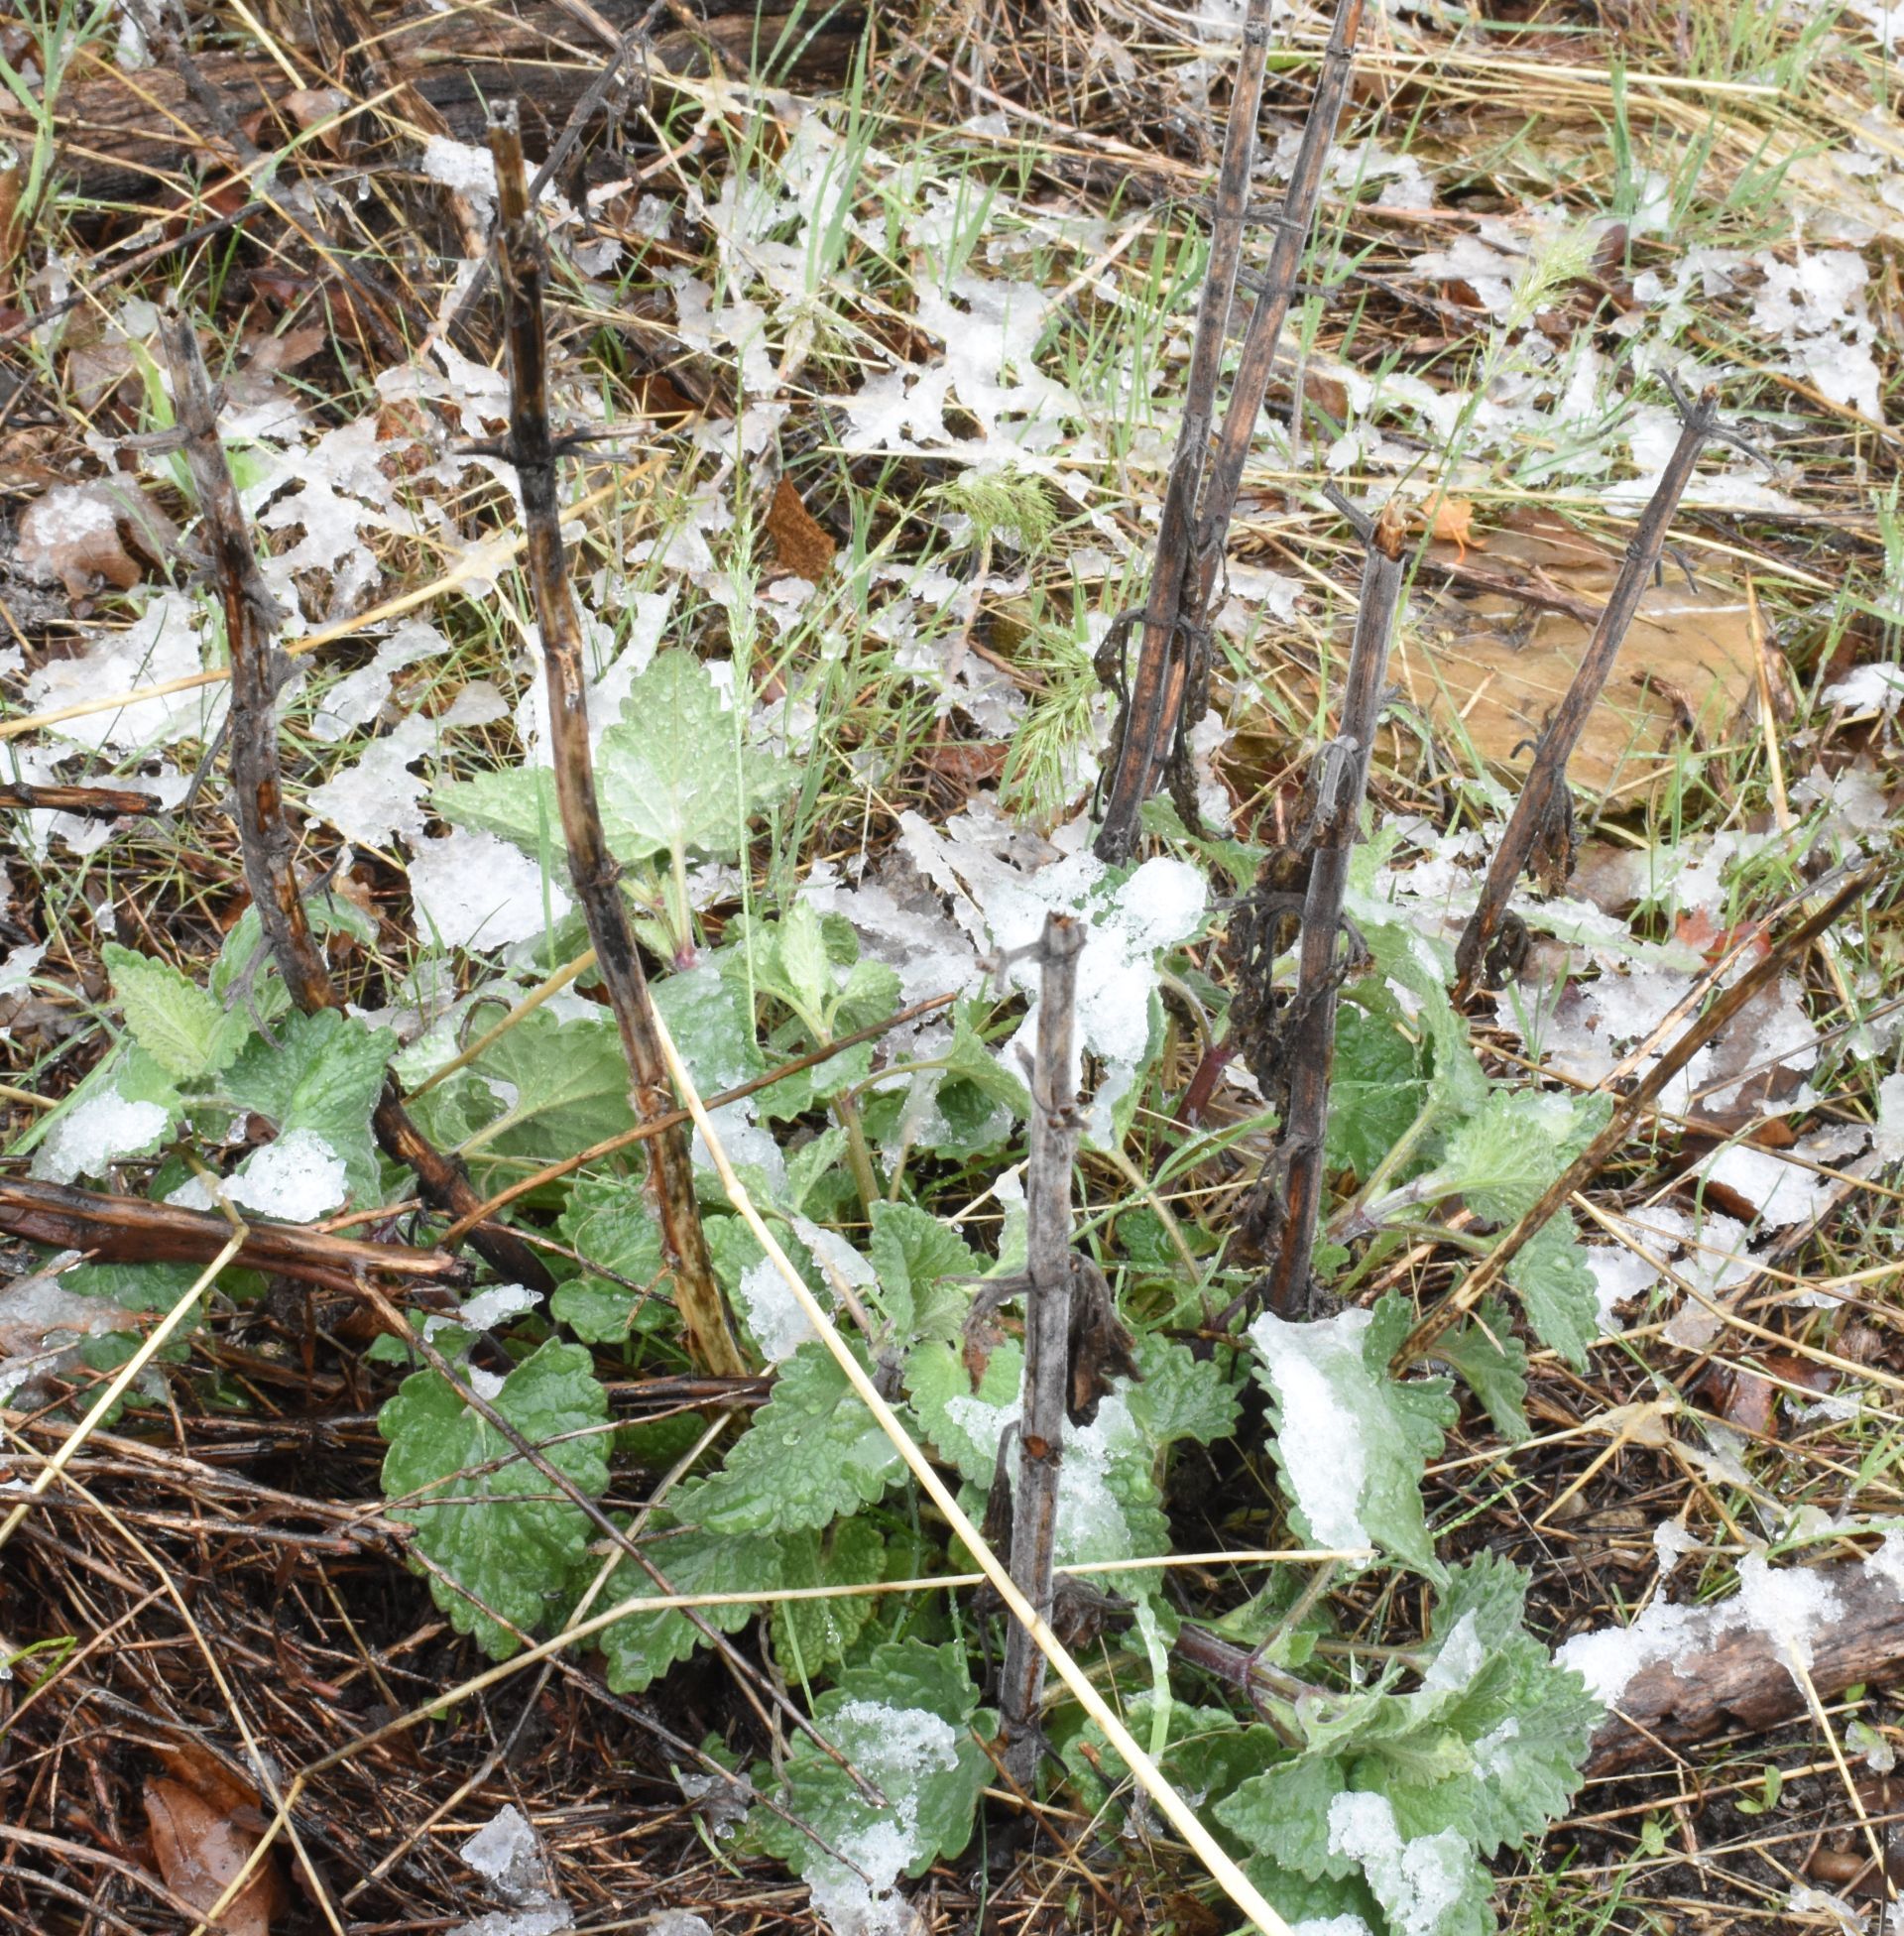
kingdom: Plantae
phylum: Tracheophyta
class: Magnoliopsida
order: Lamiales
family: Lamiaceae
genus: Nepeta
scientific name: Nepeta cataria
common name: Catnip
